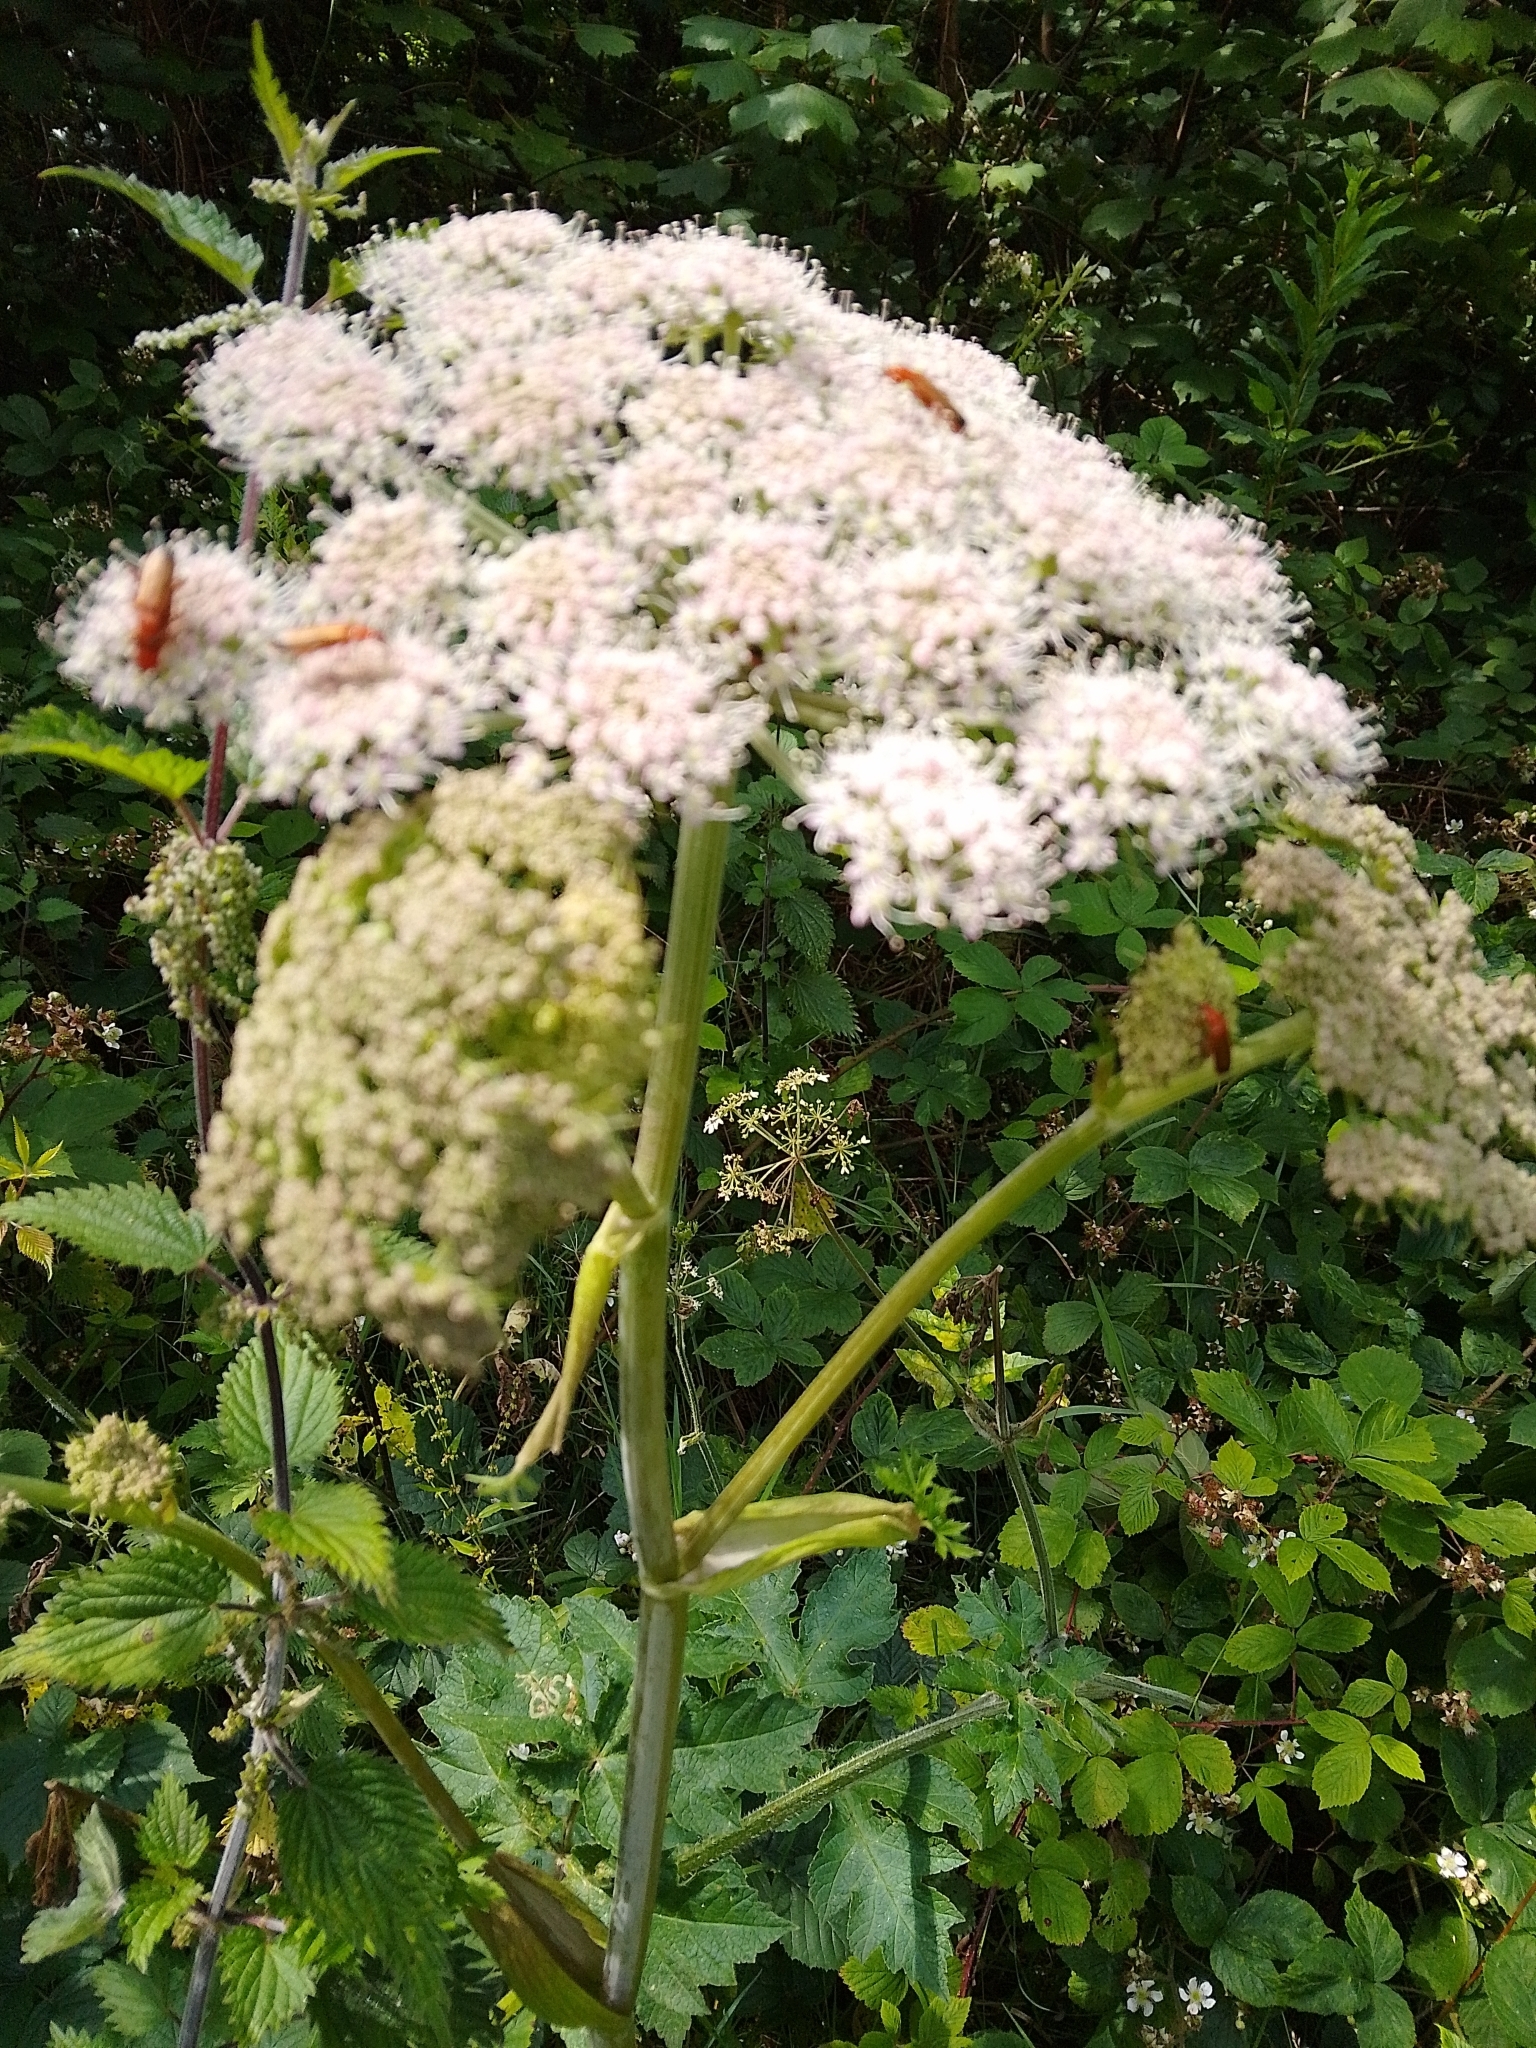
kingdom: Plantae
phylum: Tracheophyta
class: Magnoliopsida
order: Apiales
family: Apiaceae
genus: Angelica
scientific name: Angelica sylvestris
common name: Wild angelica
